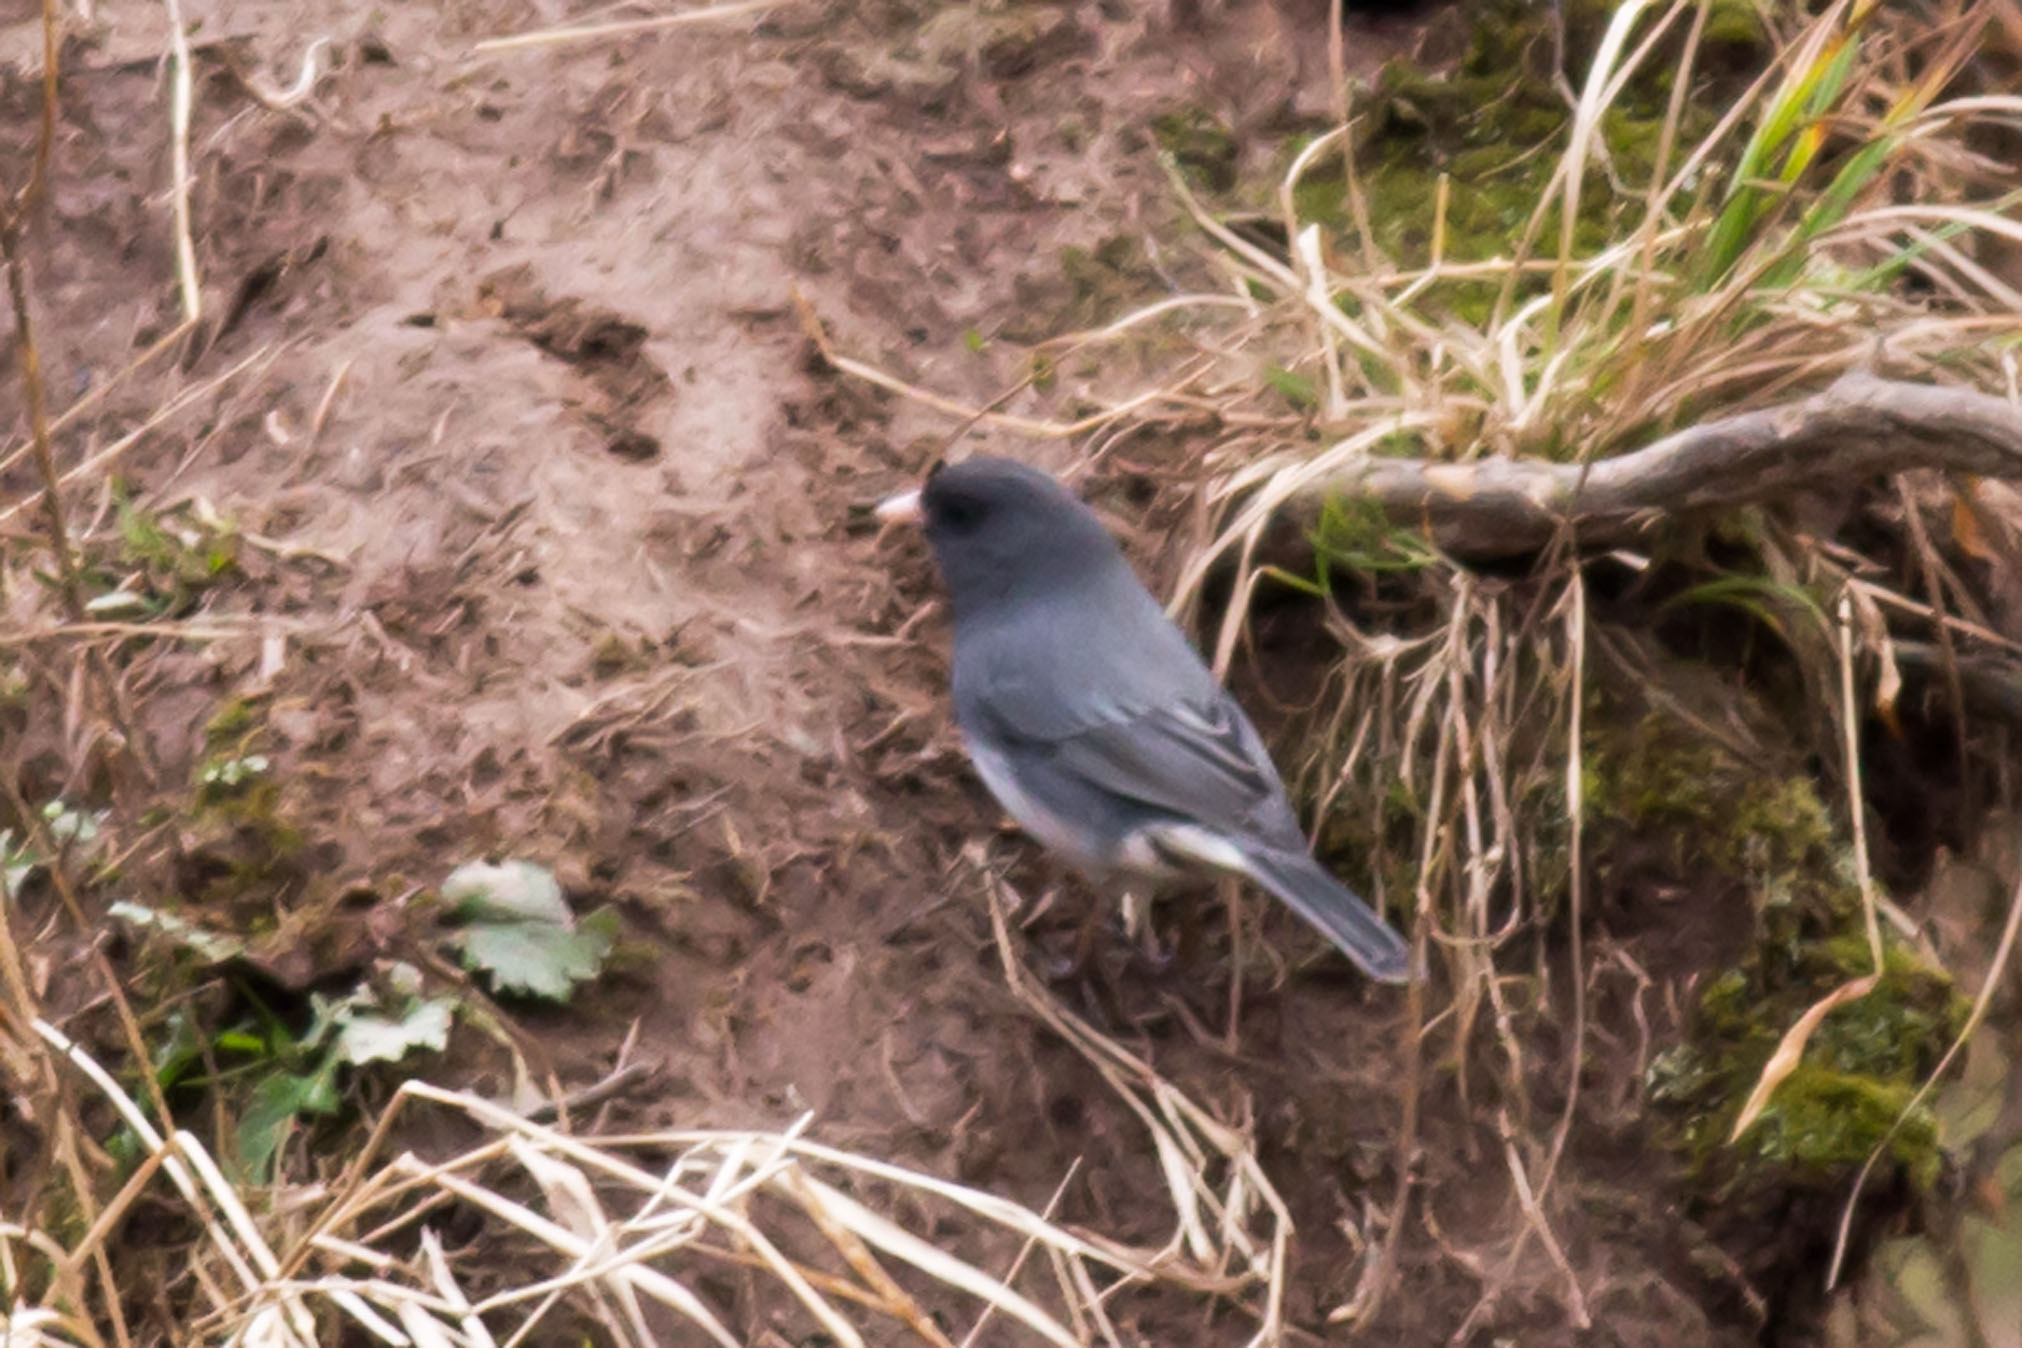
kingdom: Animalia
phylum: Chordata
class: Aves
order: Passeriformes
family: Passerellidae
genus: Junco
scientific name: Junco hyemalis
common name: Dark-eyed junco
